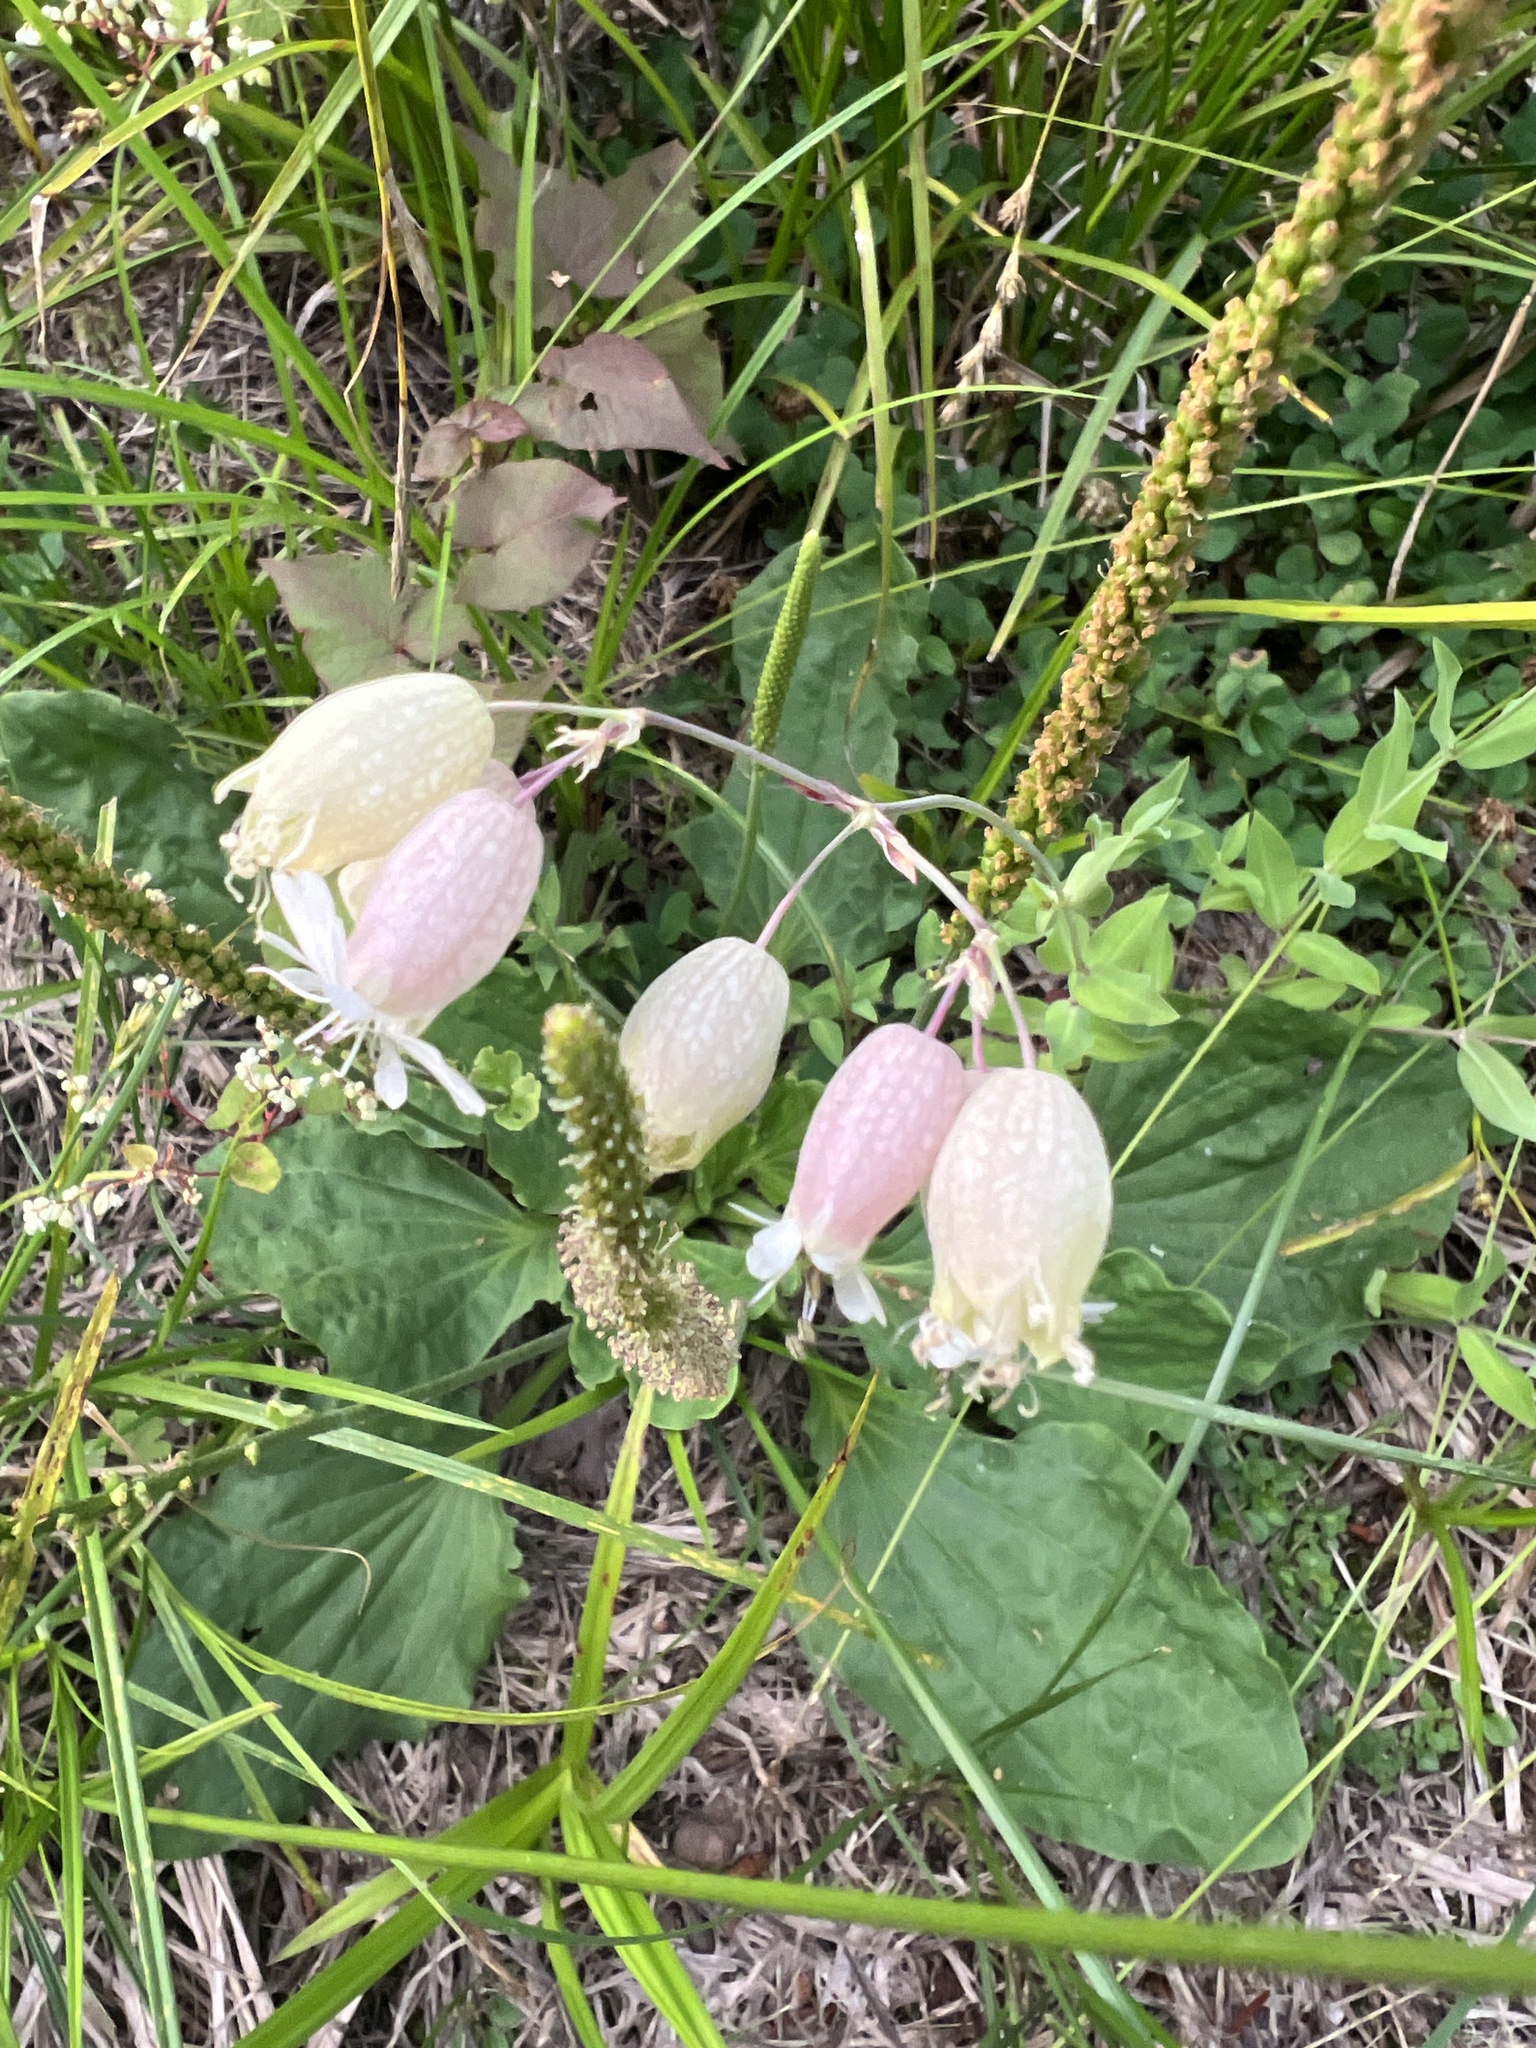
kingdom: Plantae
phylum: Tracheophyta
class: Magnoliopsida
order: Caryophyllales
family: Caryophyllaceae
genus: Silene
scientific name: Silene vulgaris
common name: Bladder campion
